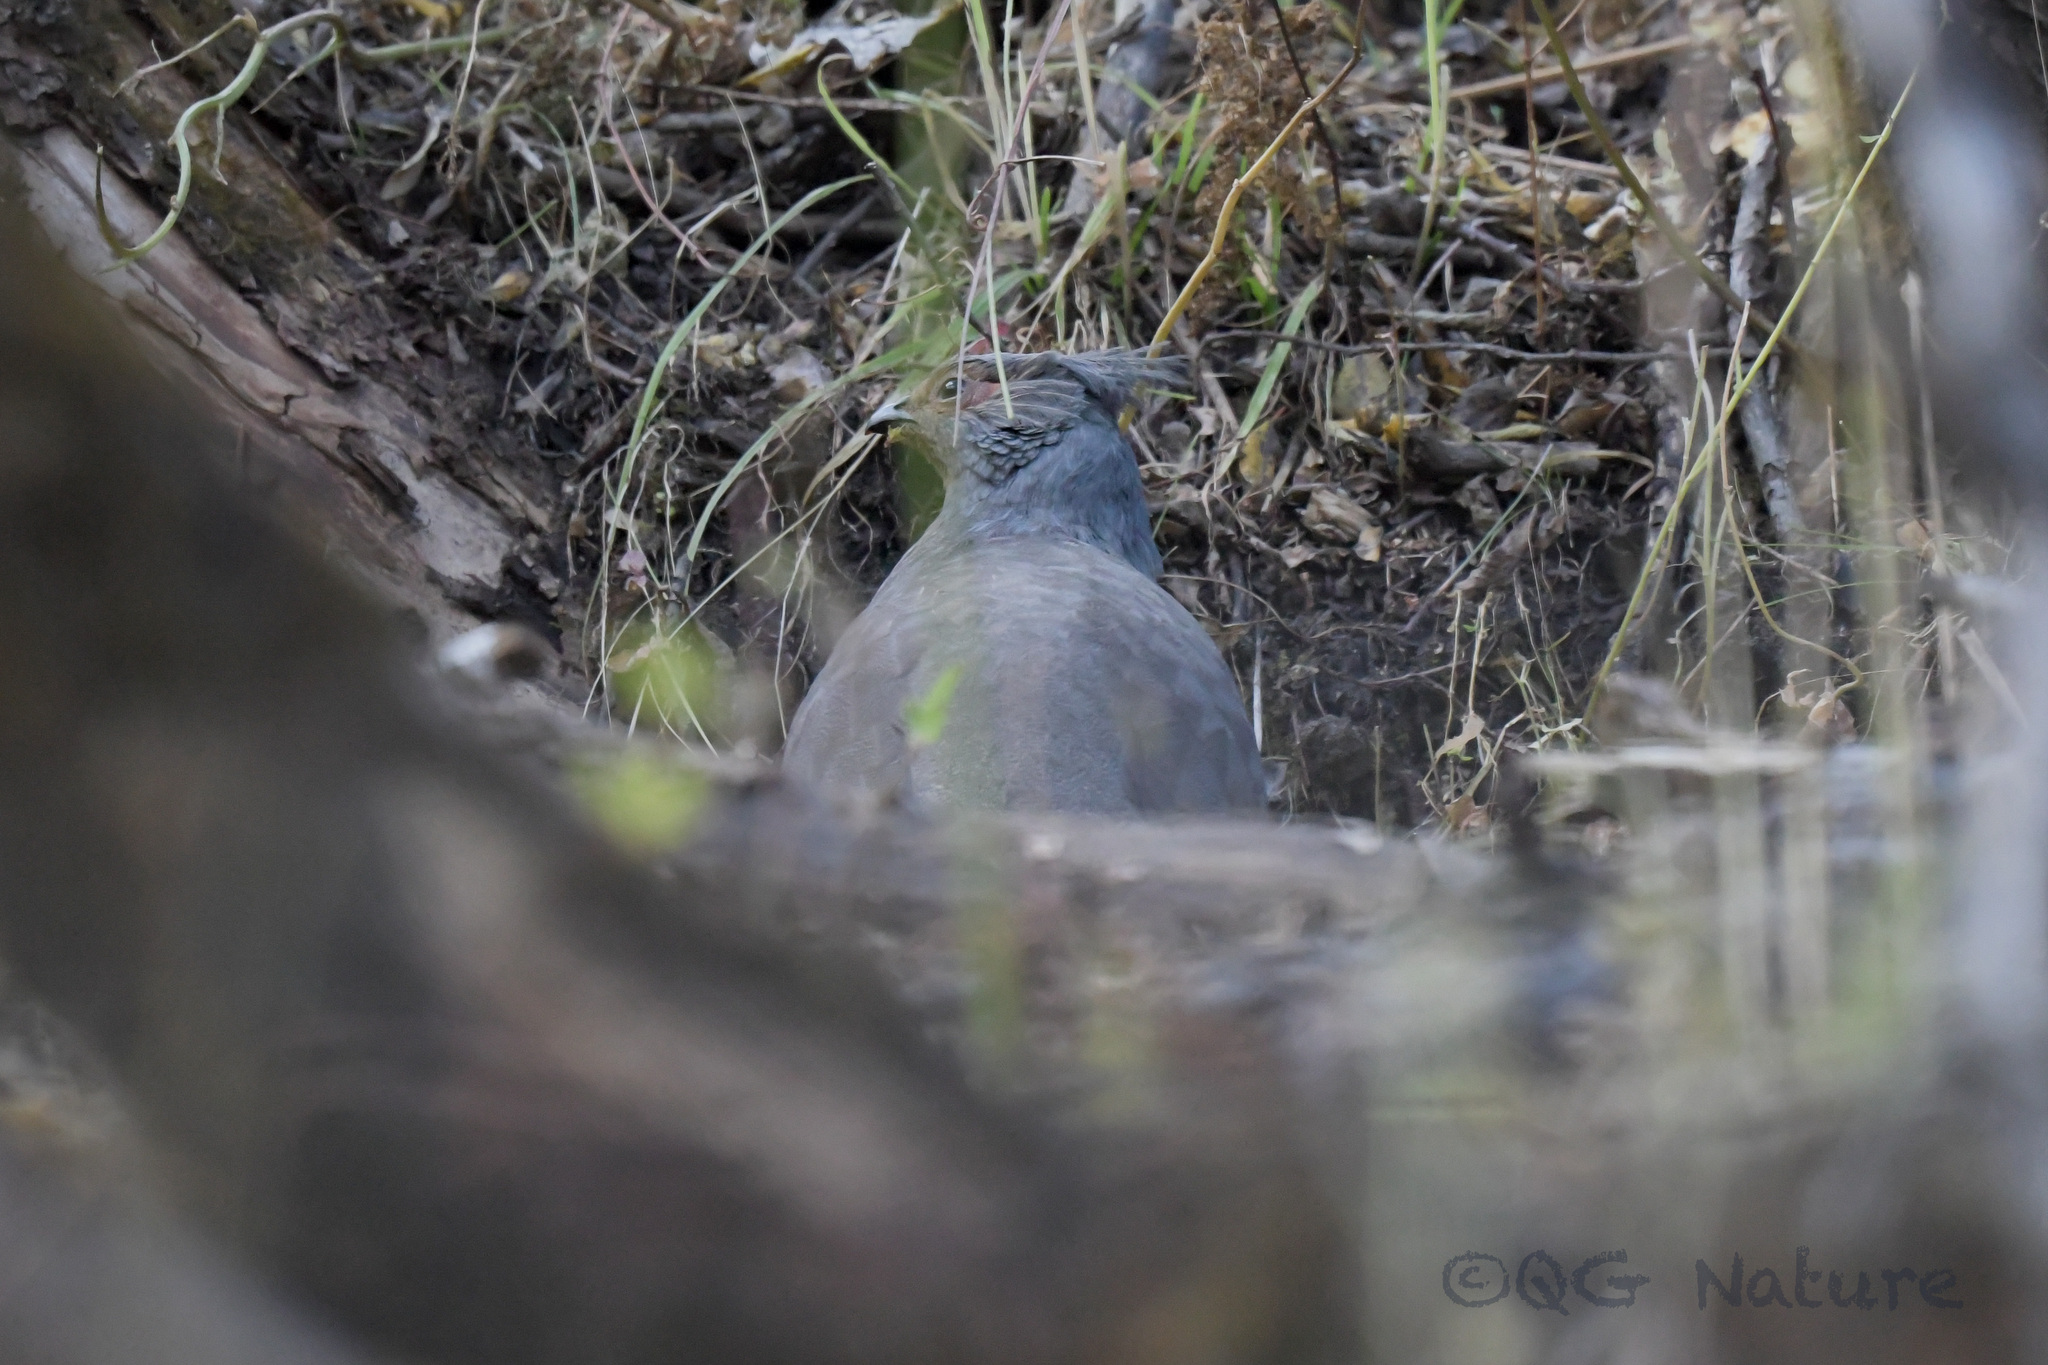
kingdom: Animalia
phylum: Chordata
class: Aves
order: Galliformes
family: Phasianidae
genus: Ithaginis
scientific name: Ithaginis cruentus
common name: Blood pheasant
